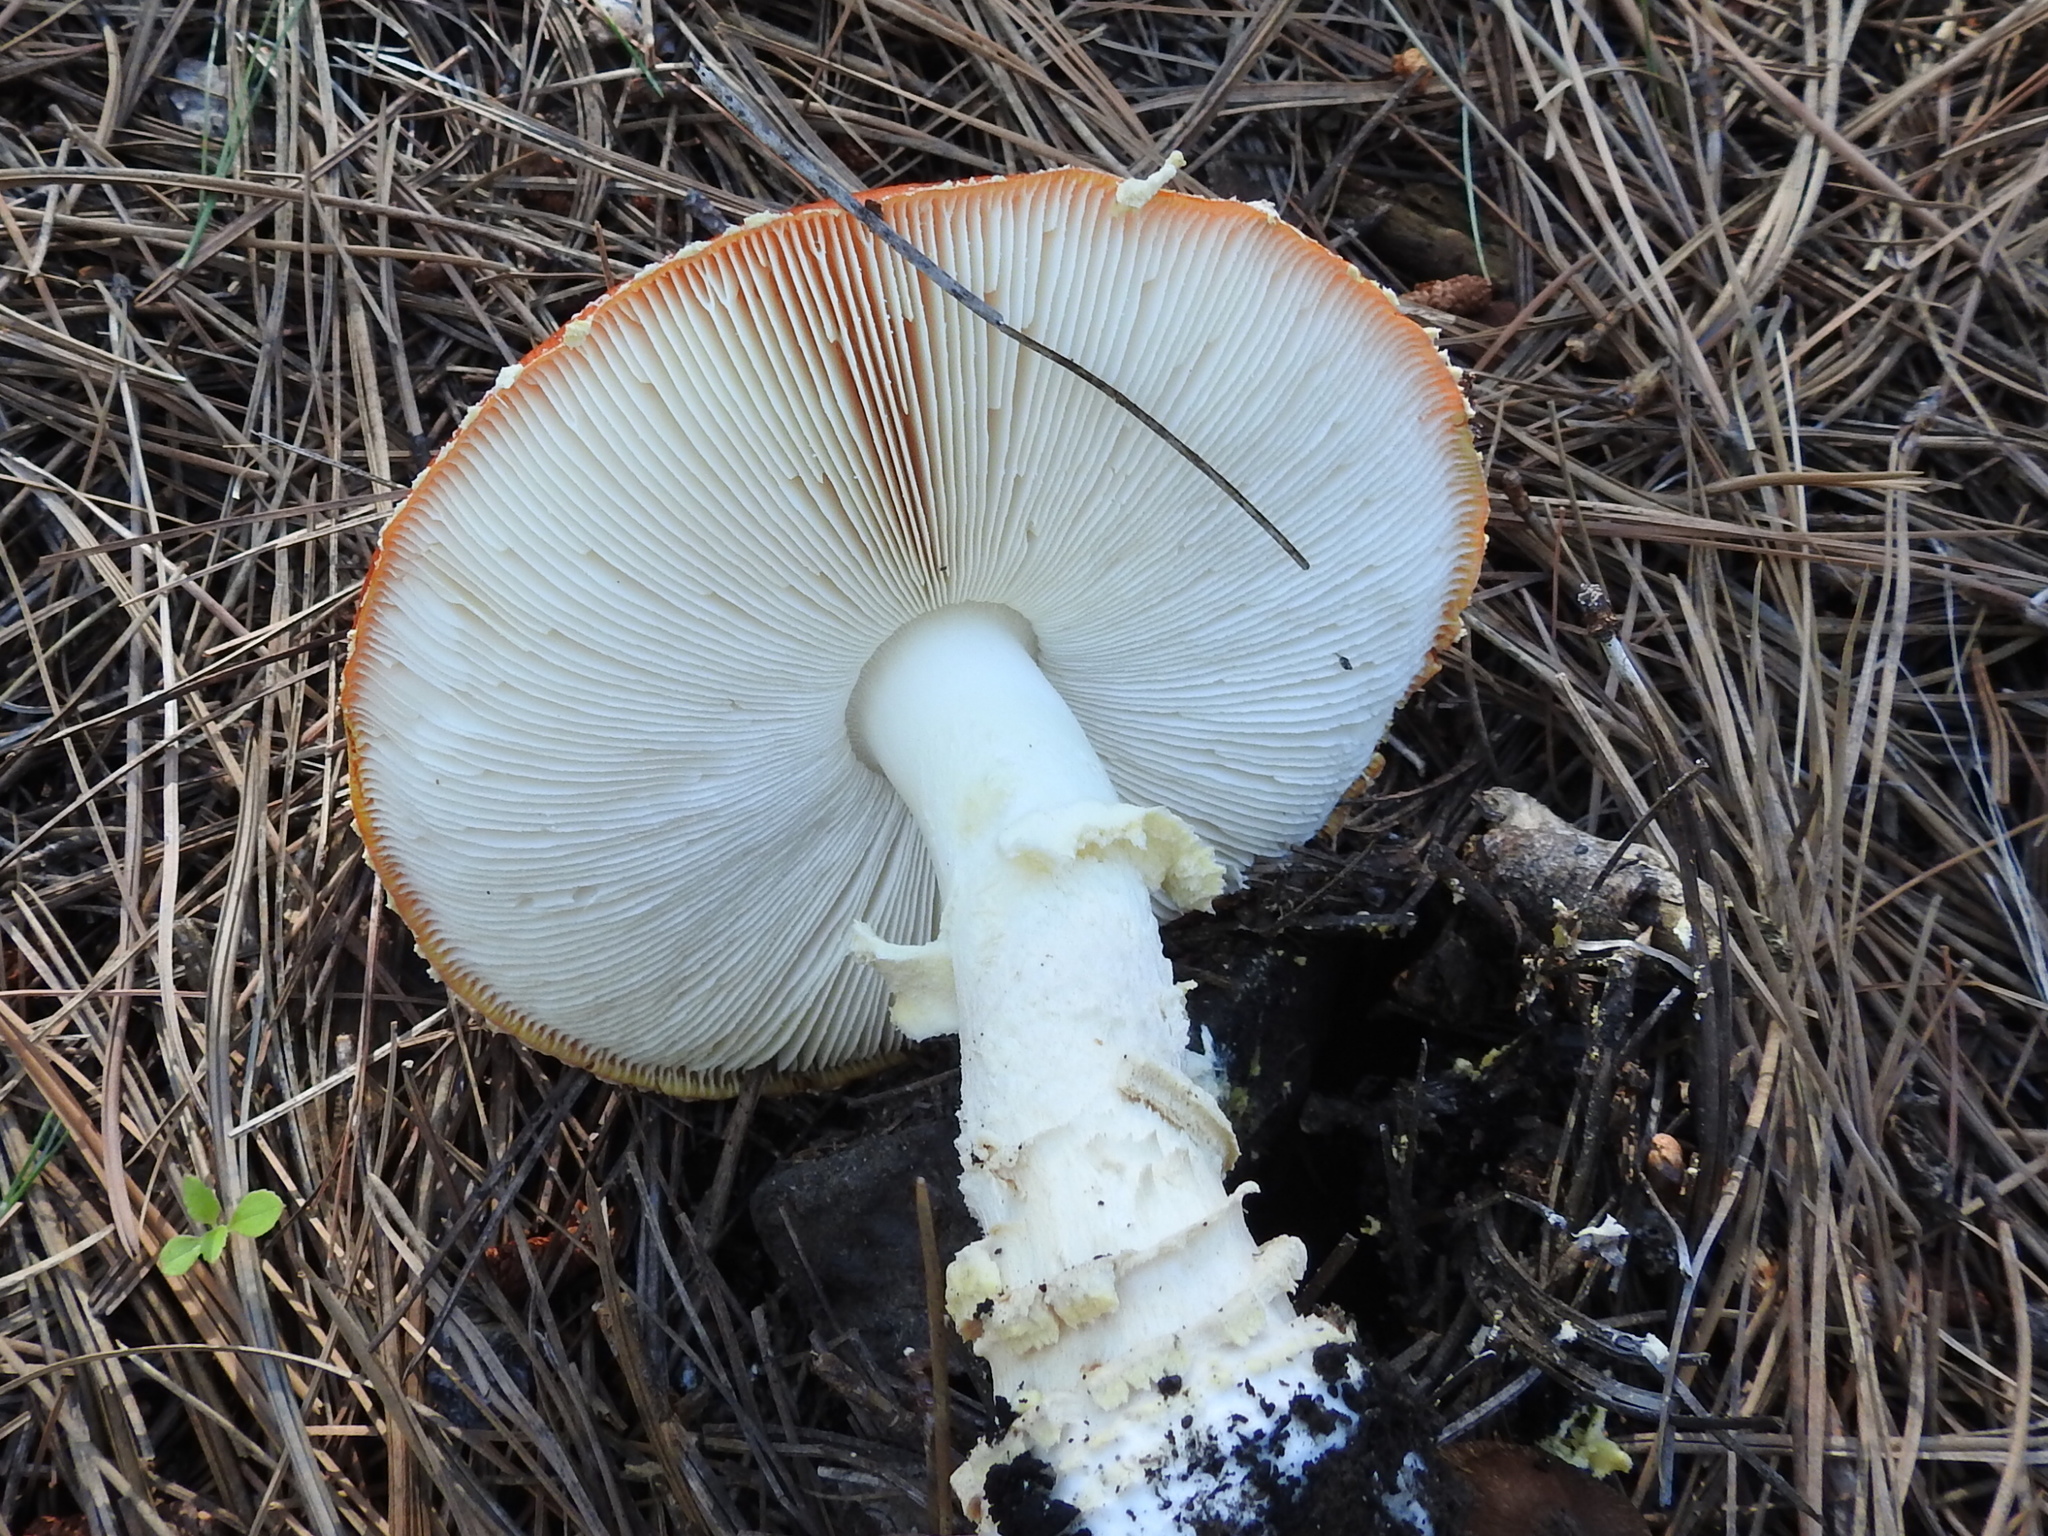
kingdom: Fungi
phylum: Basidiomycota
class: Agaricomycetes
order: Agaricales
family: Amanitaceae
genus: Amanita
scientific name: Amanita muscaria
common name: Fly agaric
